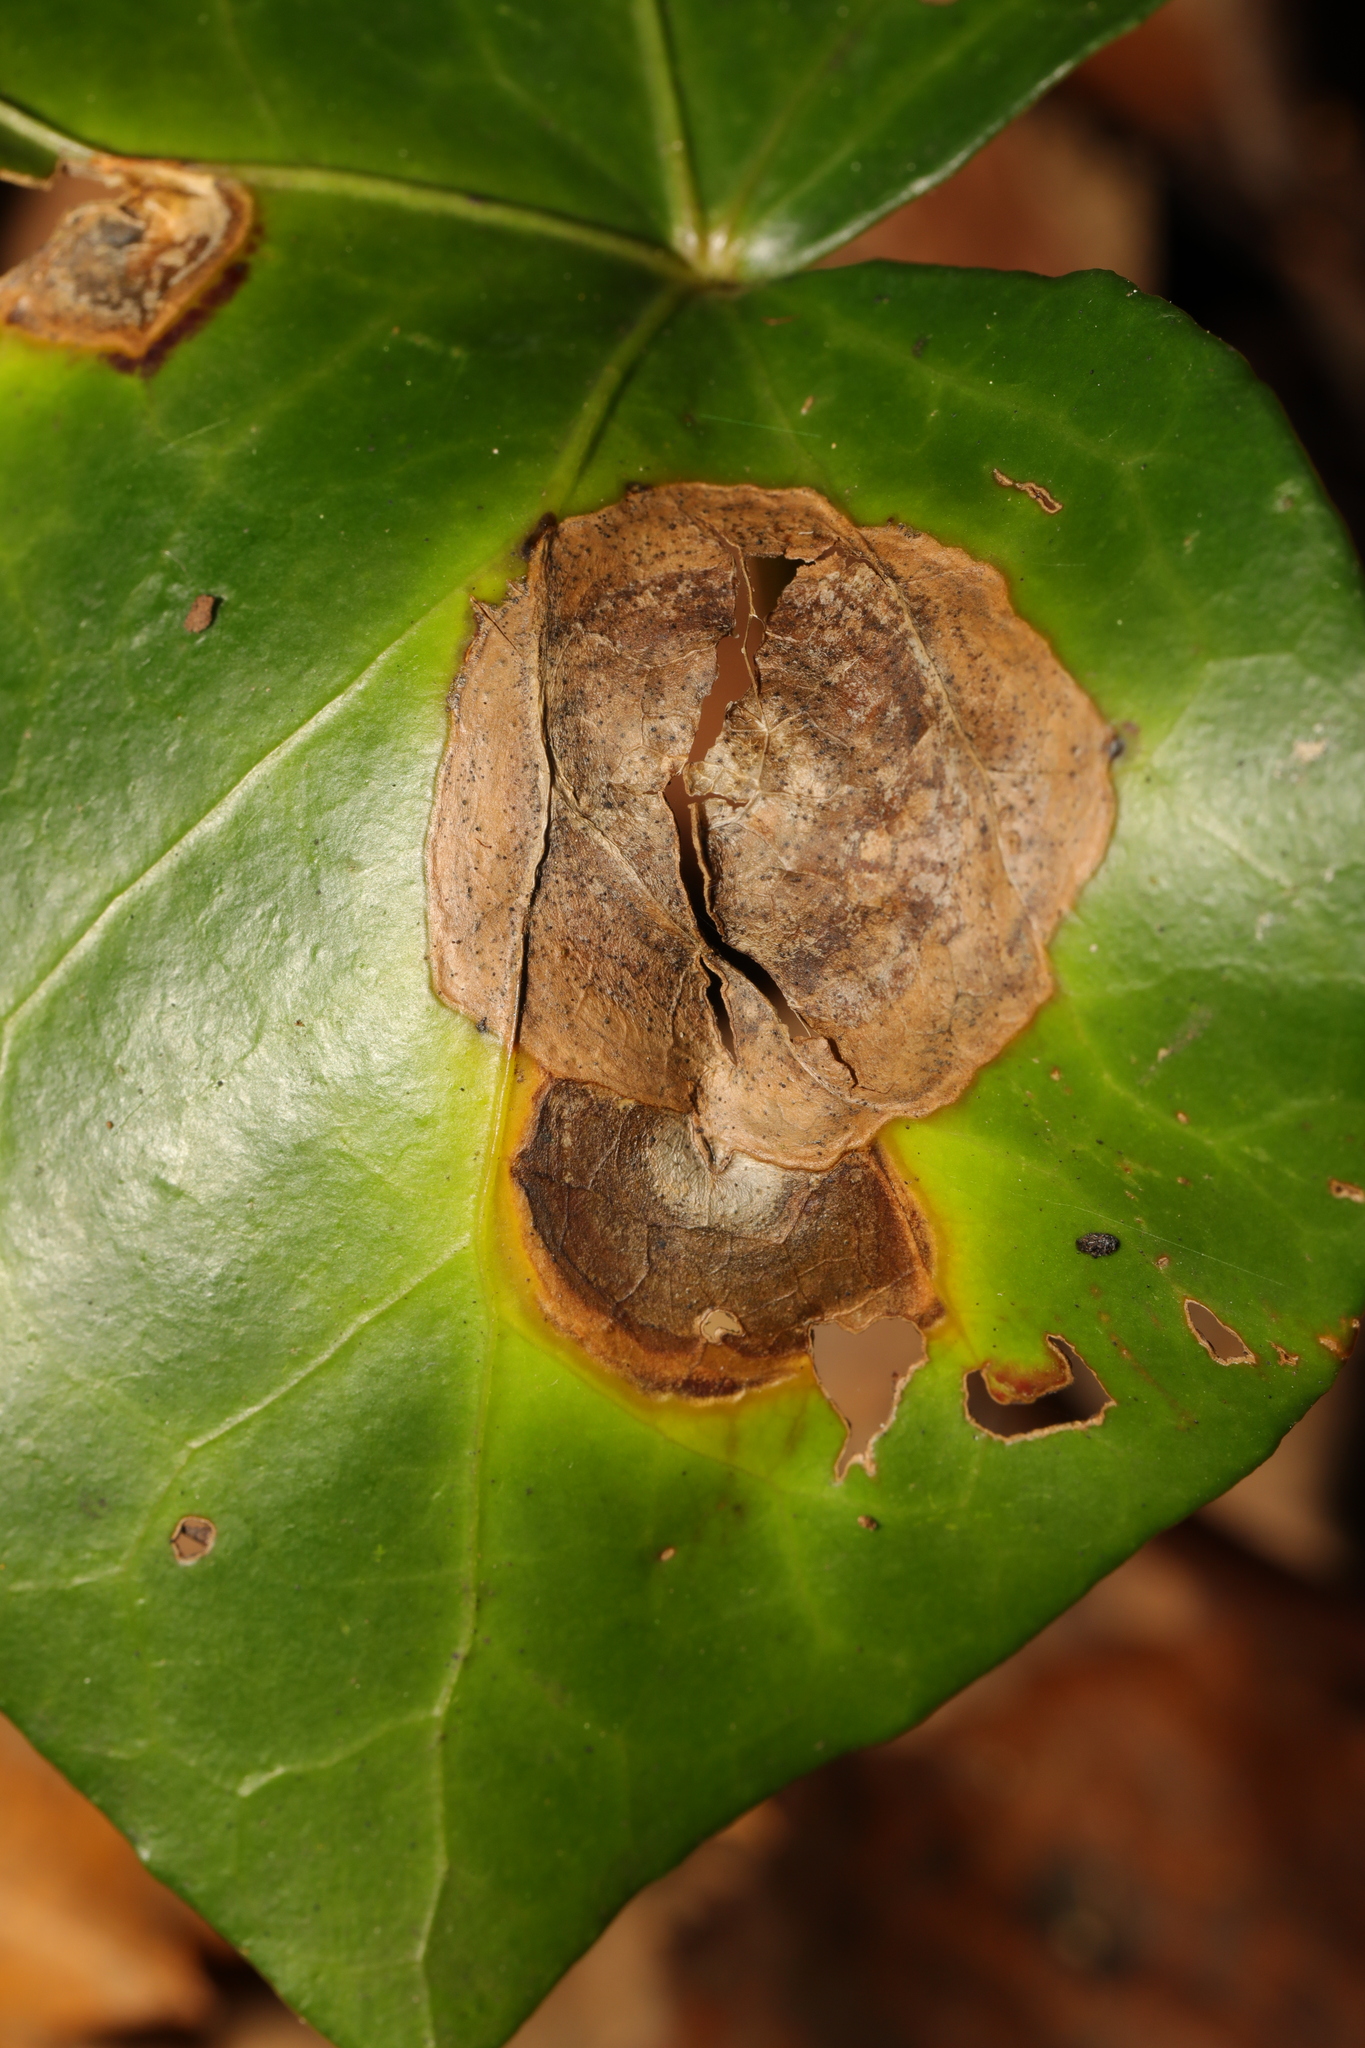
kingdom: Fungi
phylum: Ascomycota
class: Dothideomycetes
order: Pleosporales
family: Didymellaceae
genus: Boeremia
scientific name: Boeremia hedericola
